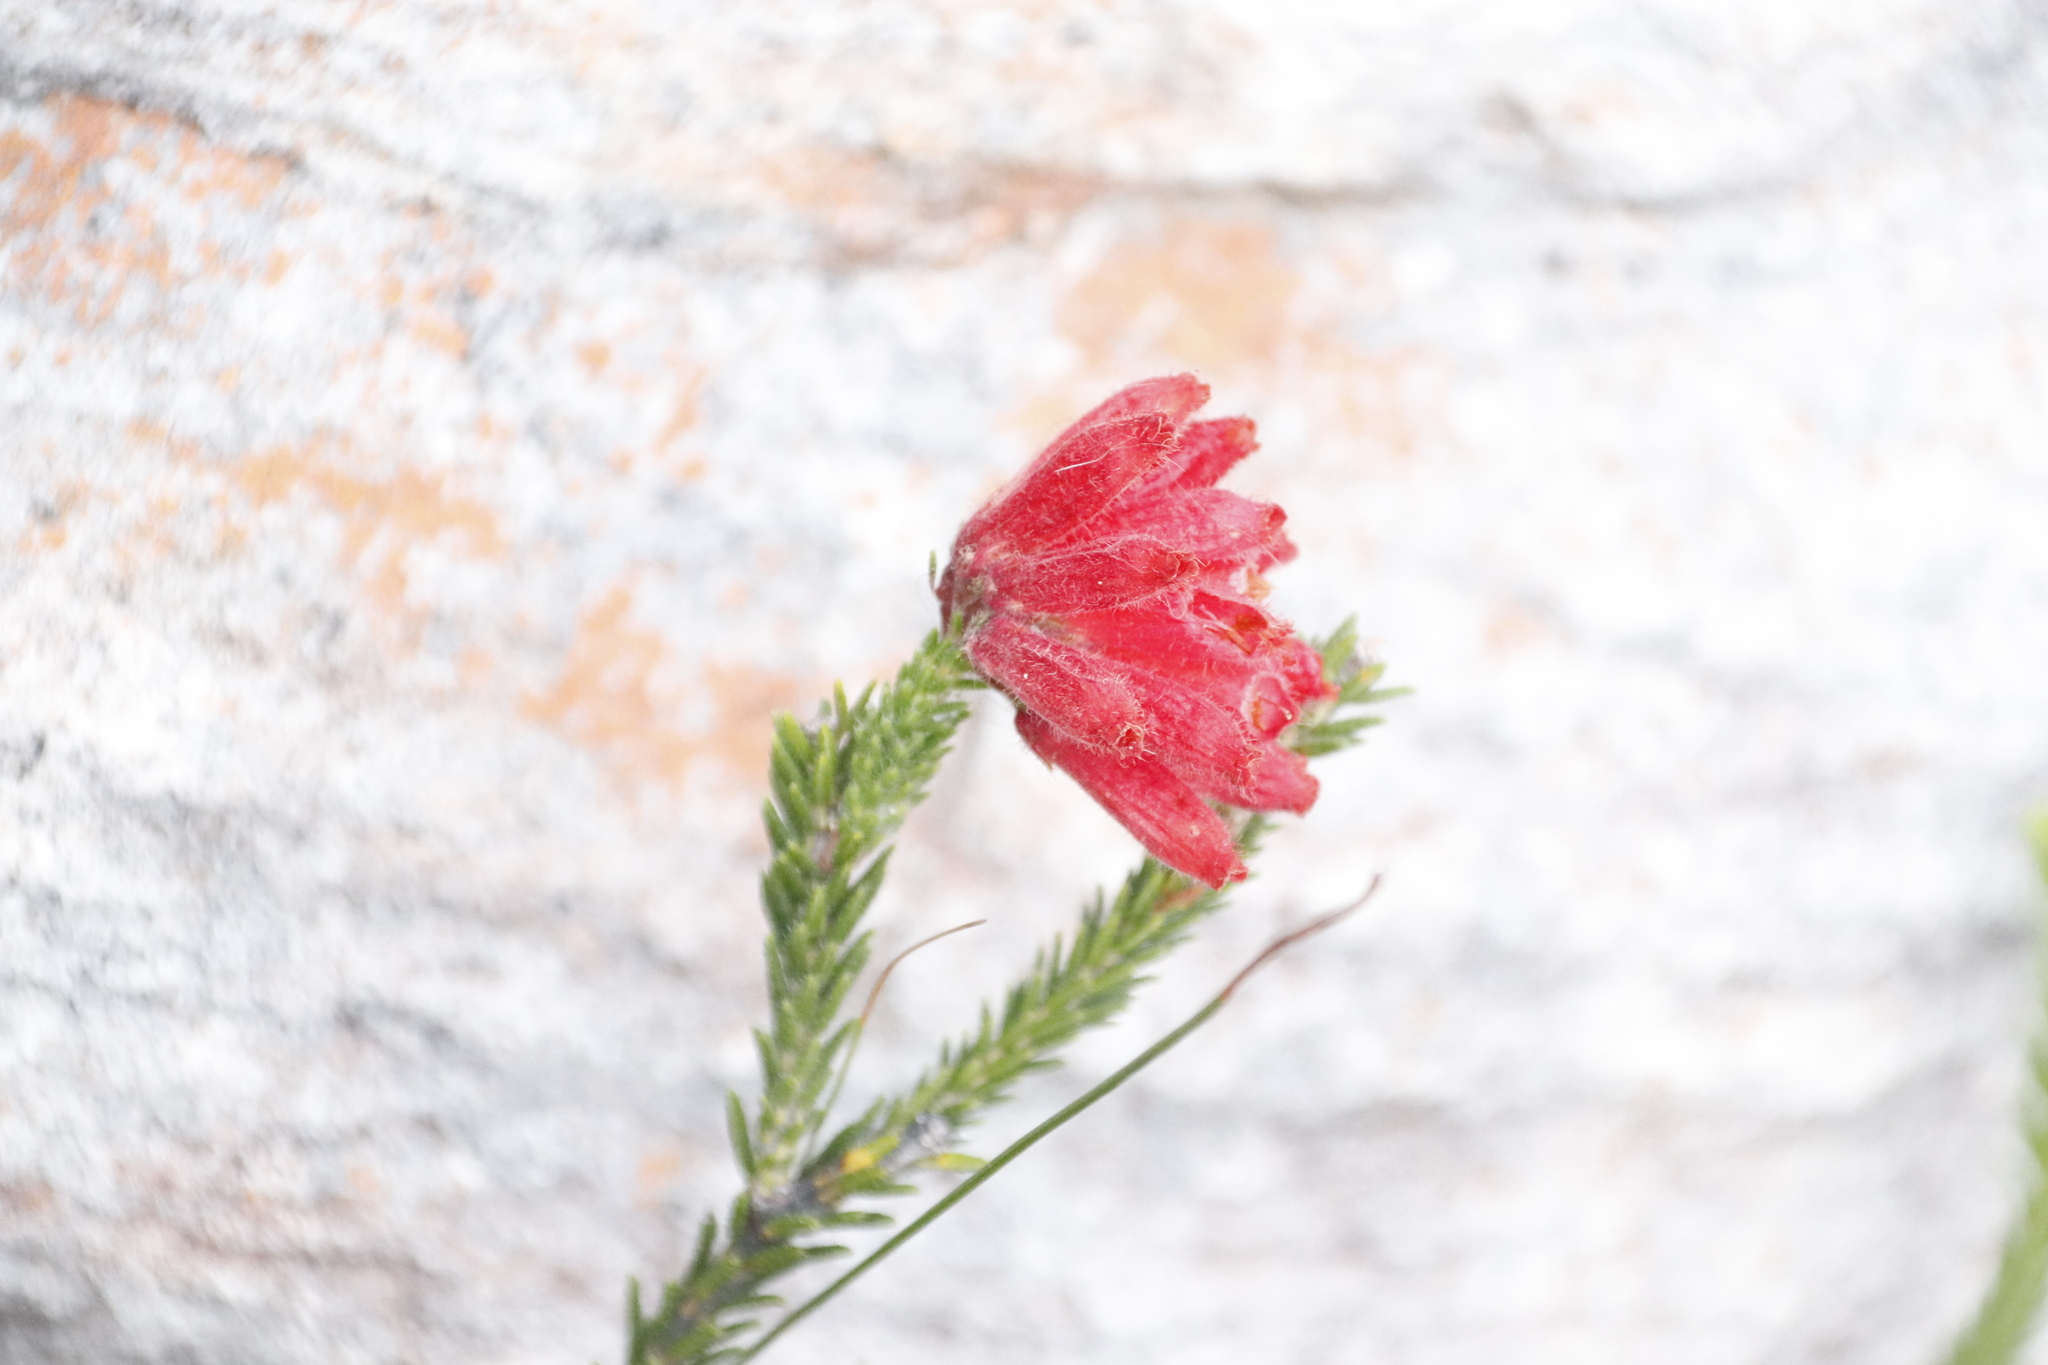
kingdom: Plantae
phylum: Tracheophyta
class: Magnoliopsida
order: Ericales
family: Ericaceae
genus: Erica
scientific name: Erica cerinthoides
